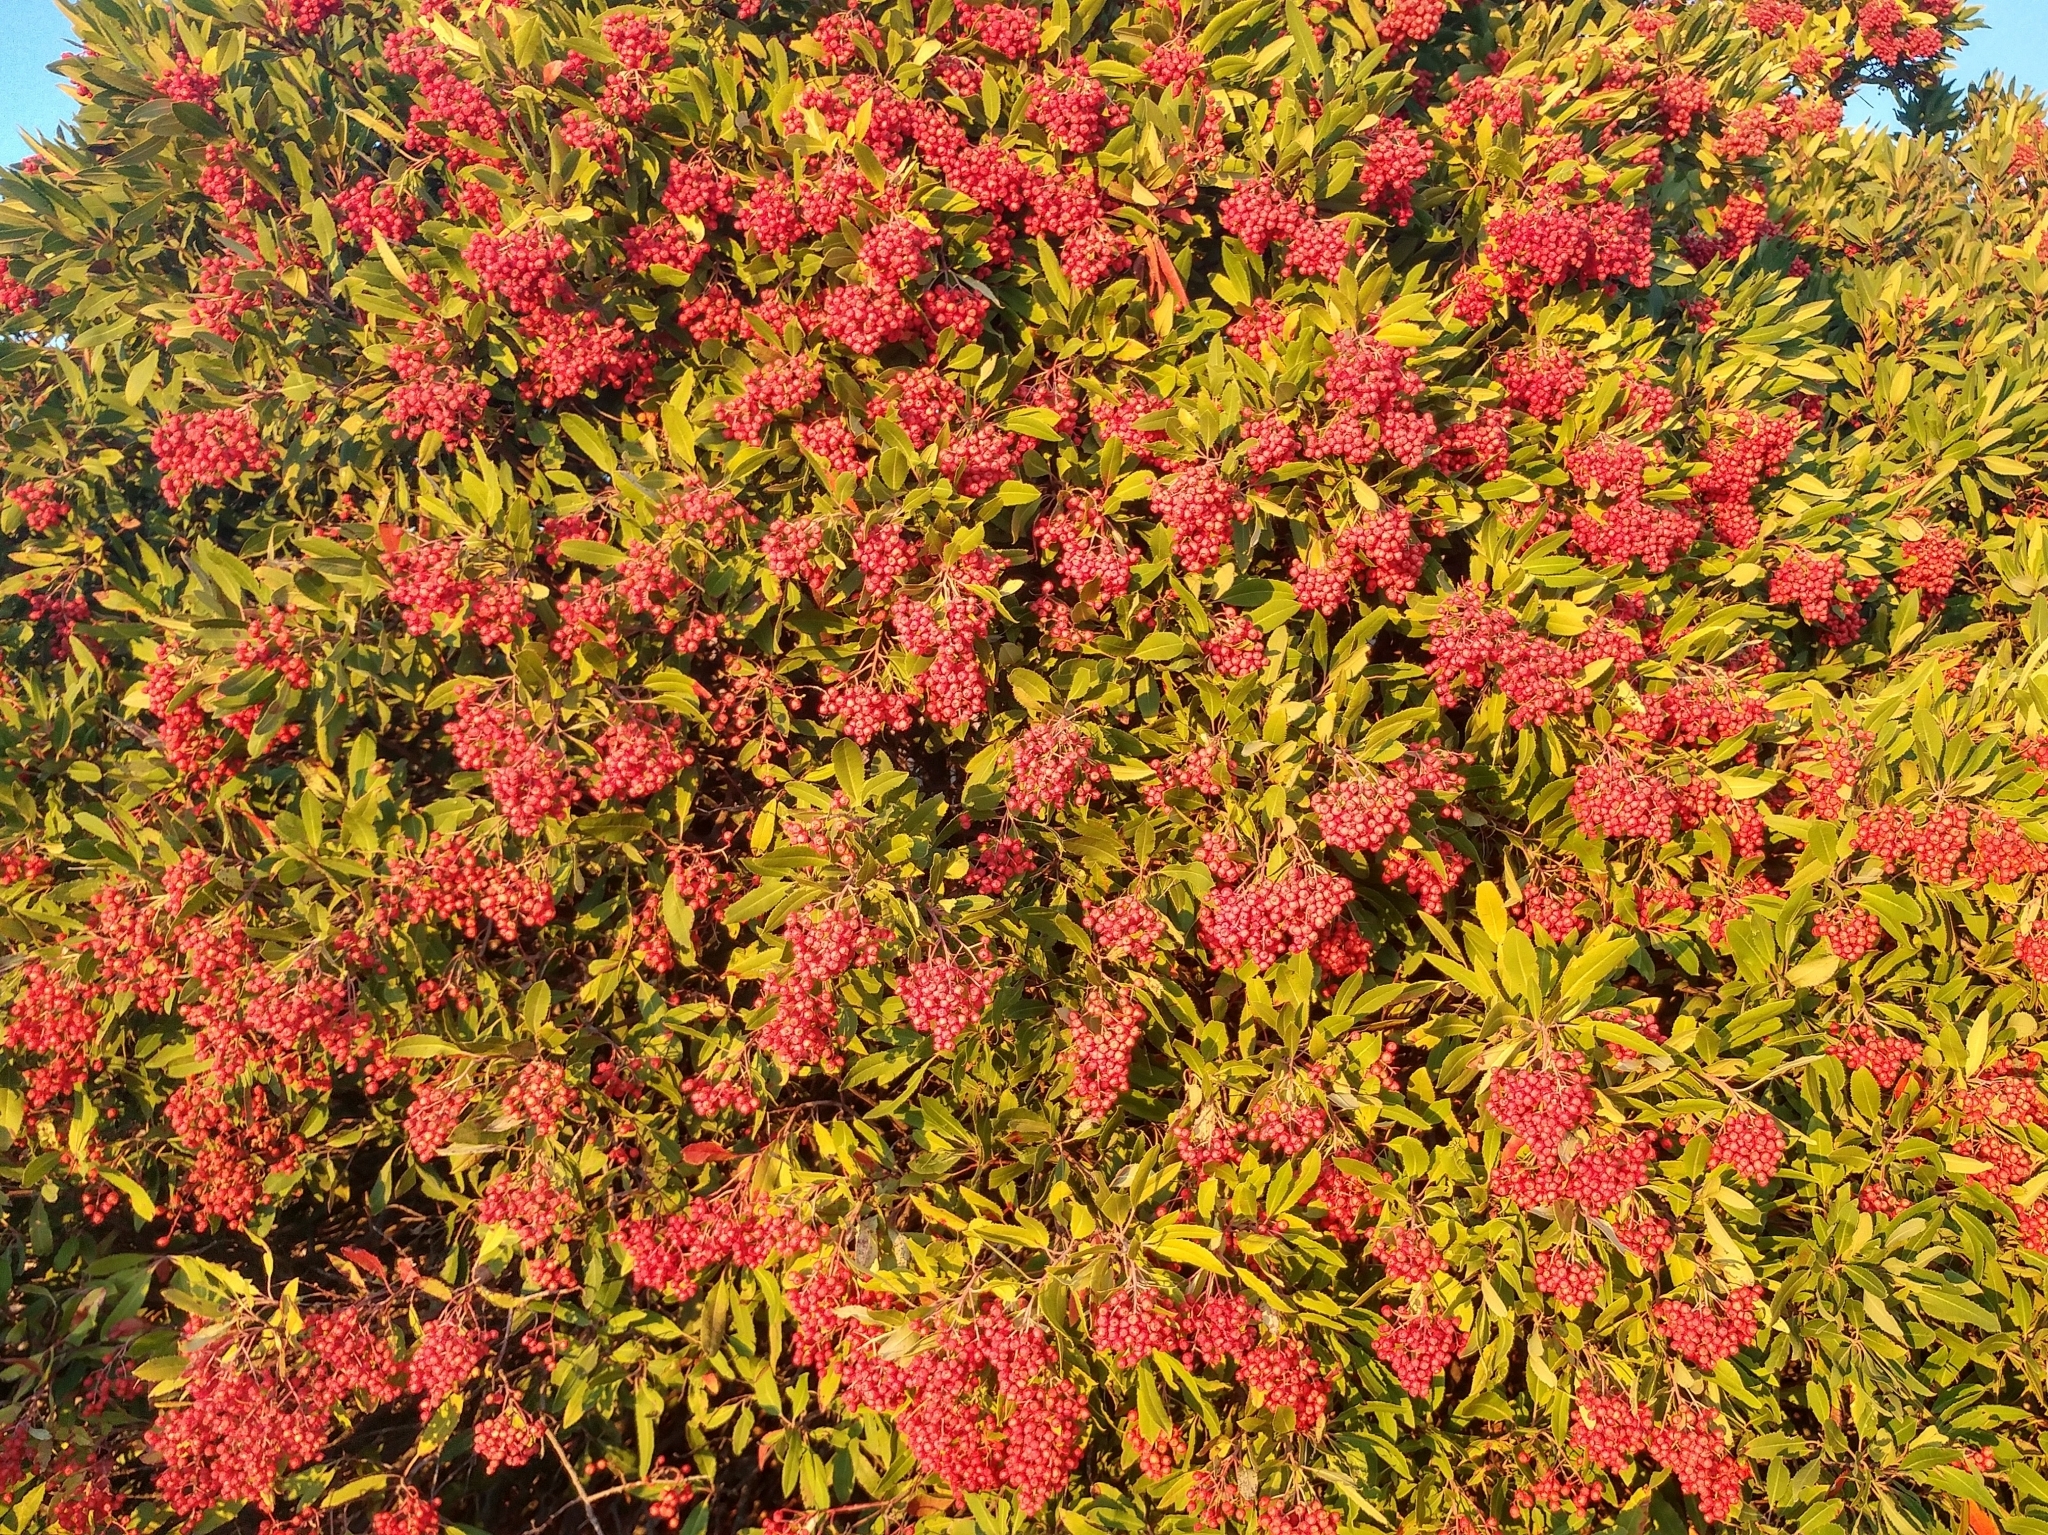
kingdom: Plantae
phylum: Tracheophyta
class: Magnoliopsida
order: Rosales
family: Rosaceae
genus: Heteromeles
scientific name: Heteromeles arbutifolia
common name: California-holly
